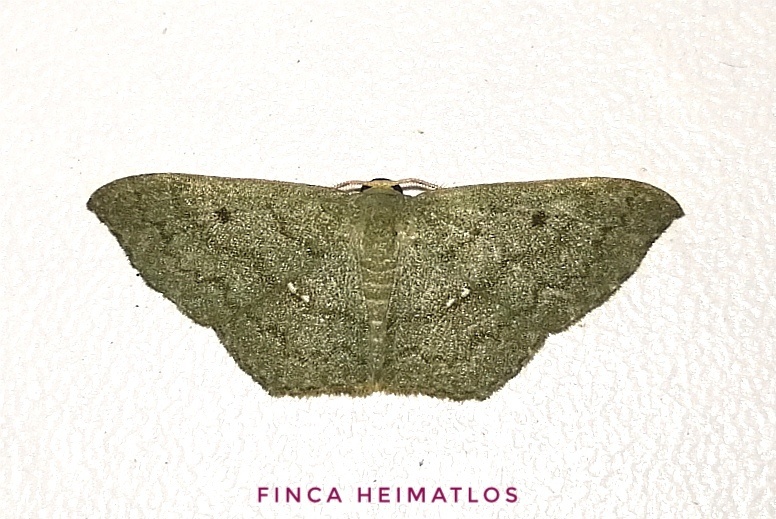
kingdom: Animalia
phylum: Arthropoda
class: Insecta
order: Lepidoptera
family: Geometridae
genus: Zalissolepis
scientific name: Zalissolepis subviolaria
